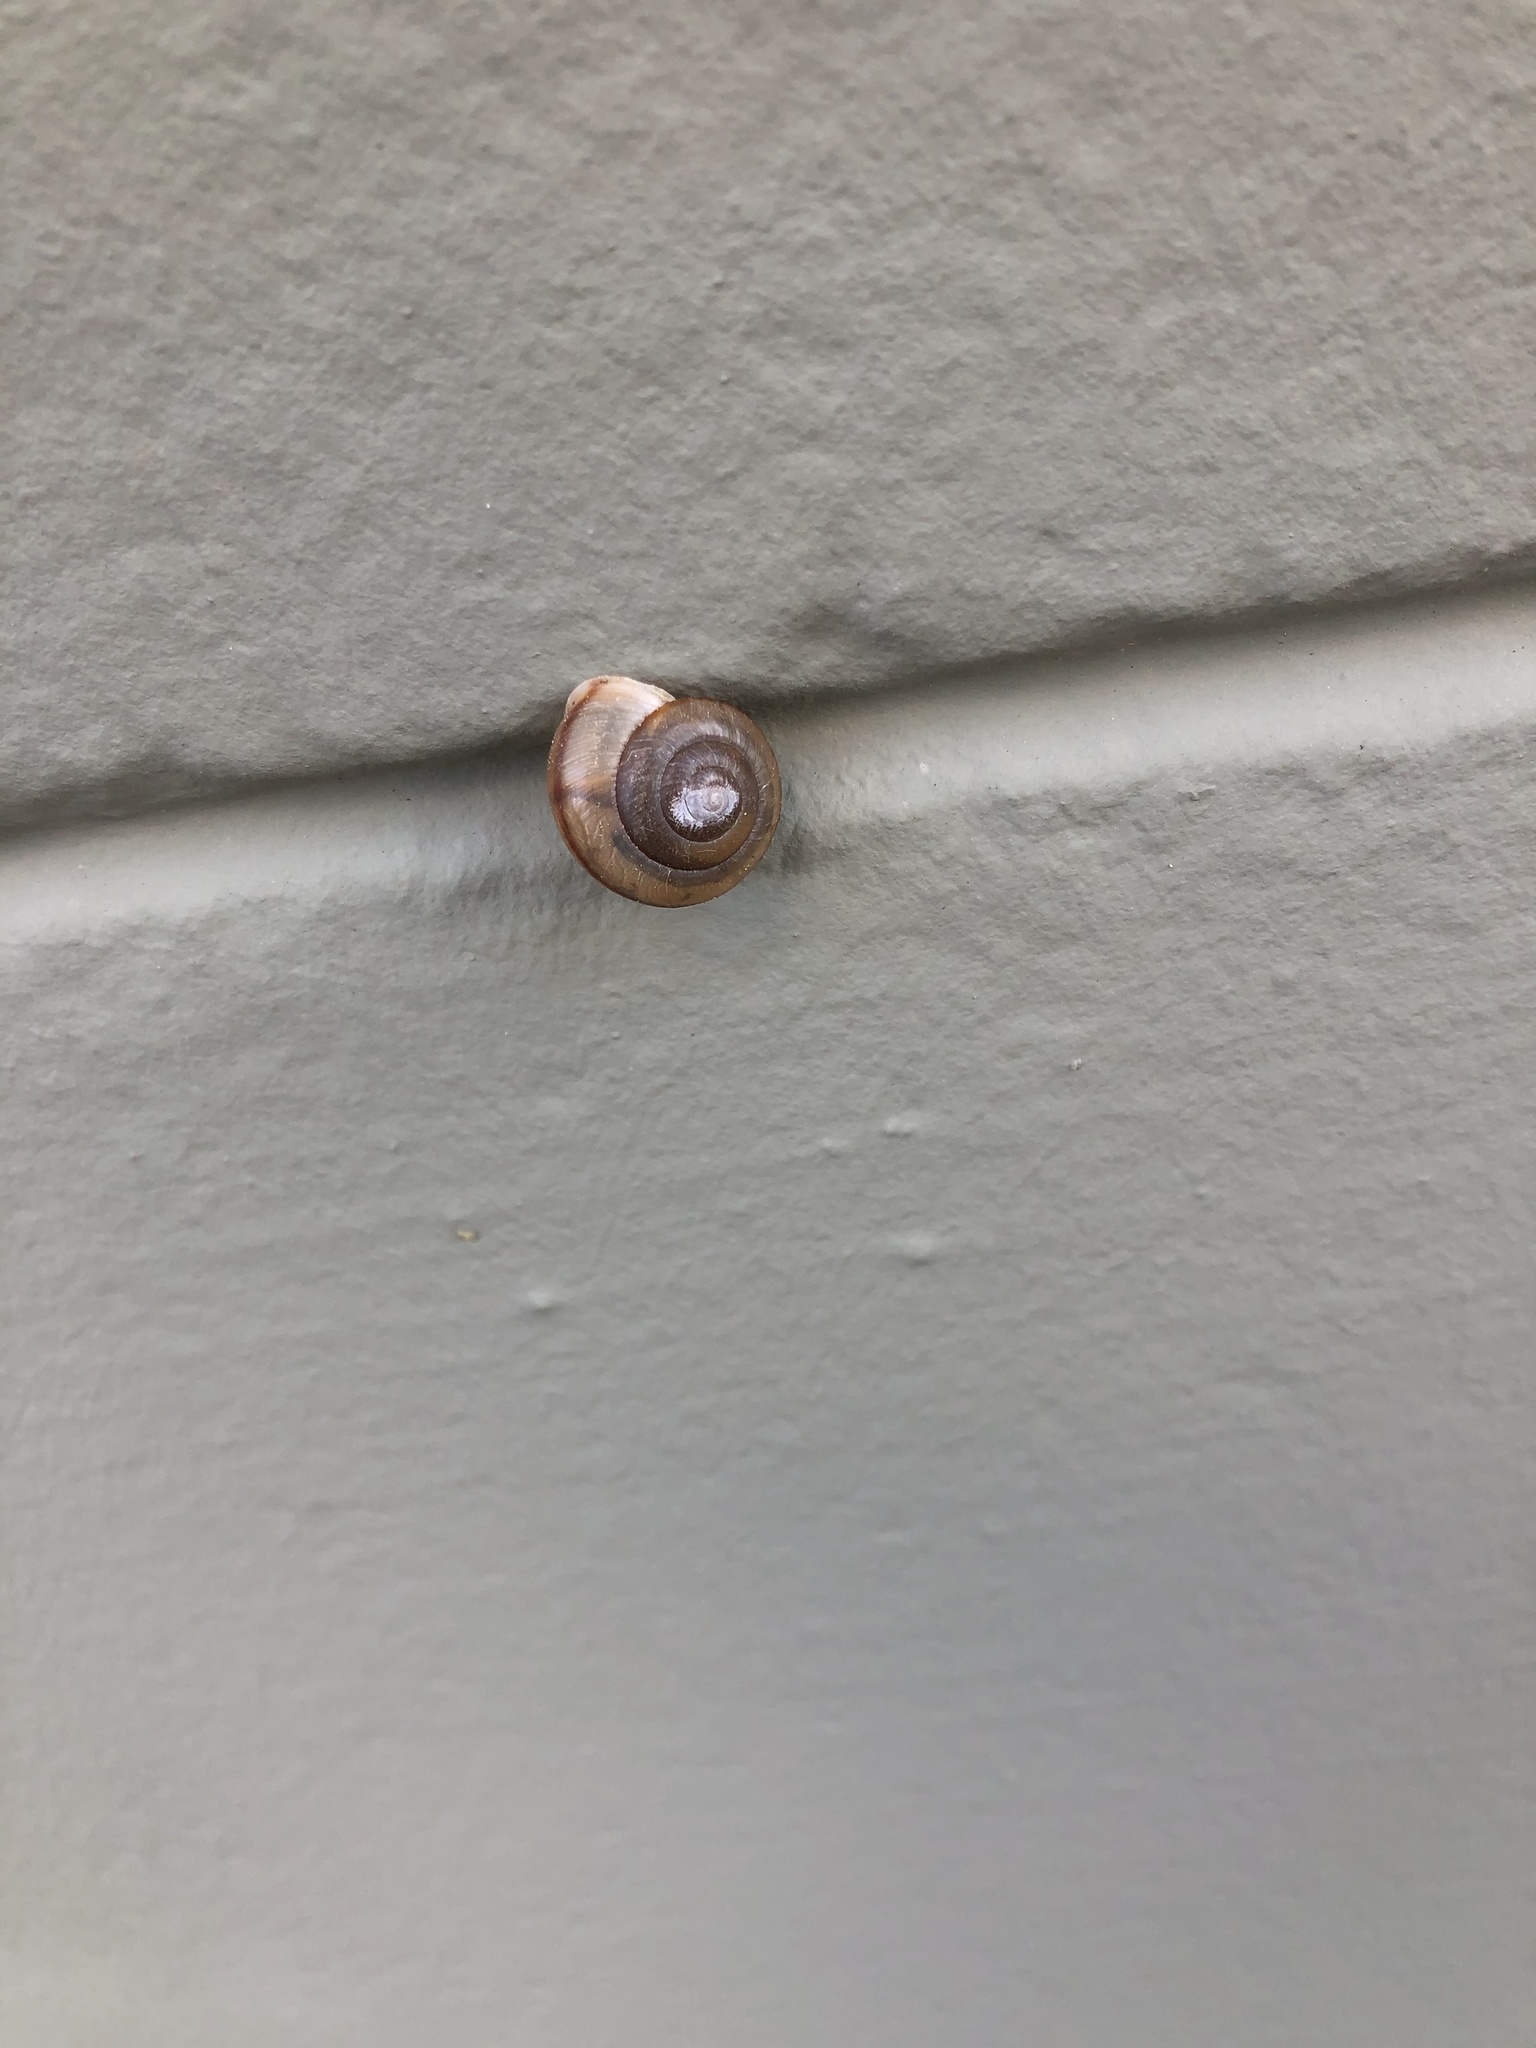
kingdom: Animalia
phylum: Mollusca
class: Gastropoda
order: Stylommatophora
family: Camaenidae
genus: Bradybaena
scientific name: Bradybaena similaris
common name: Asian trampsnail
